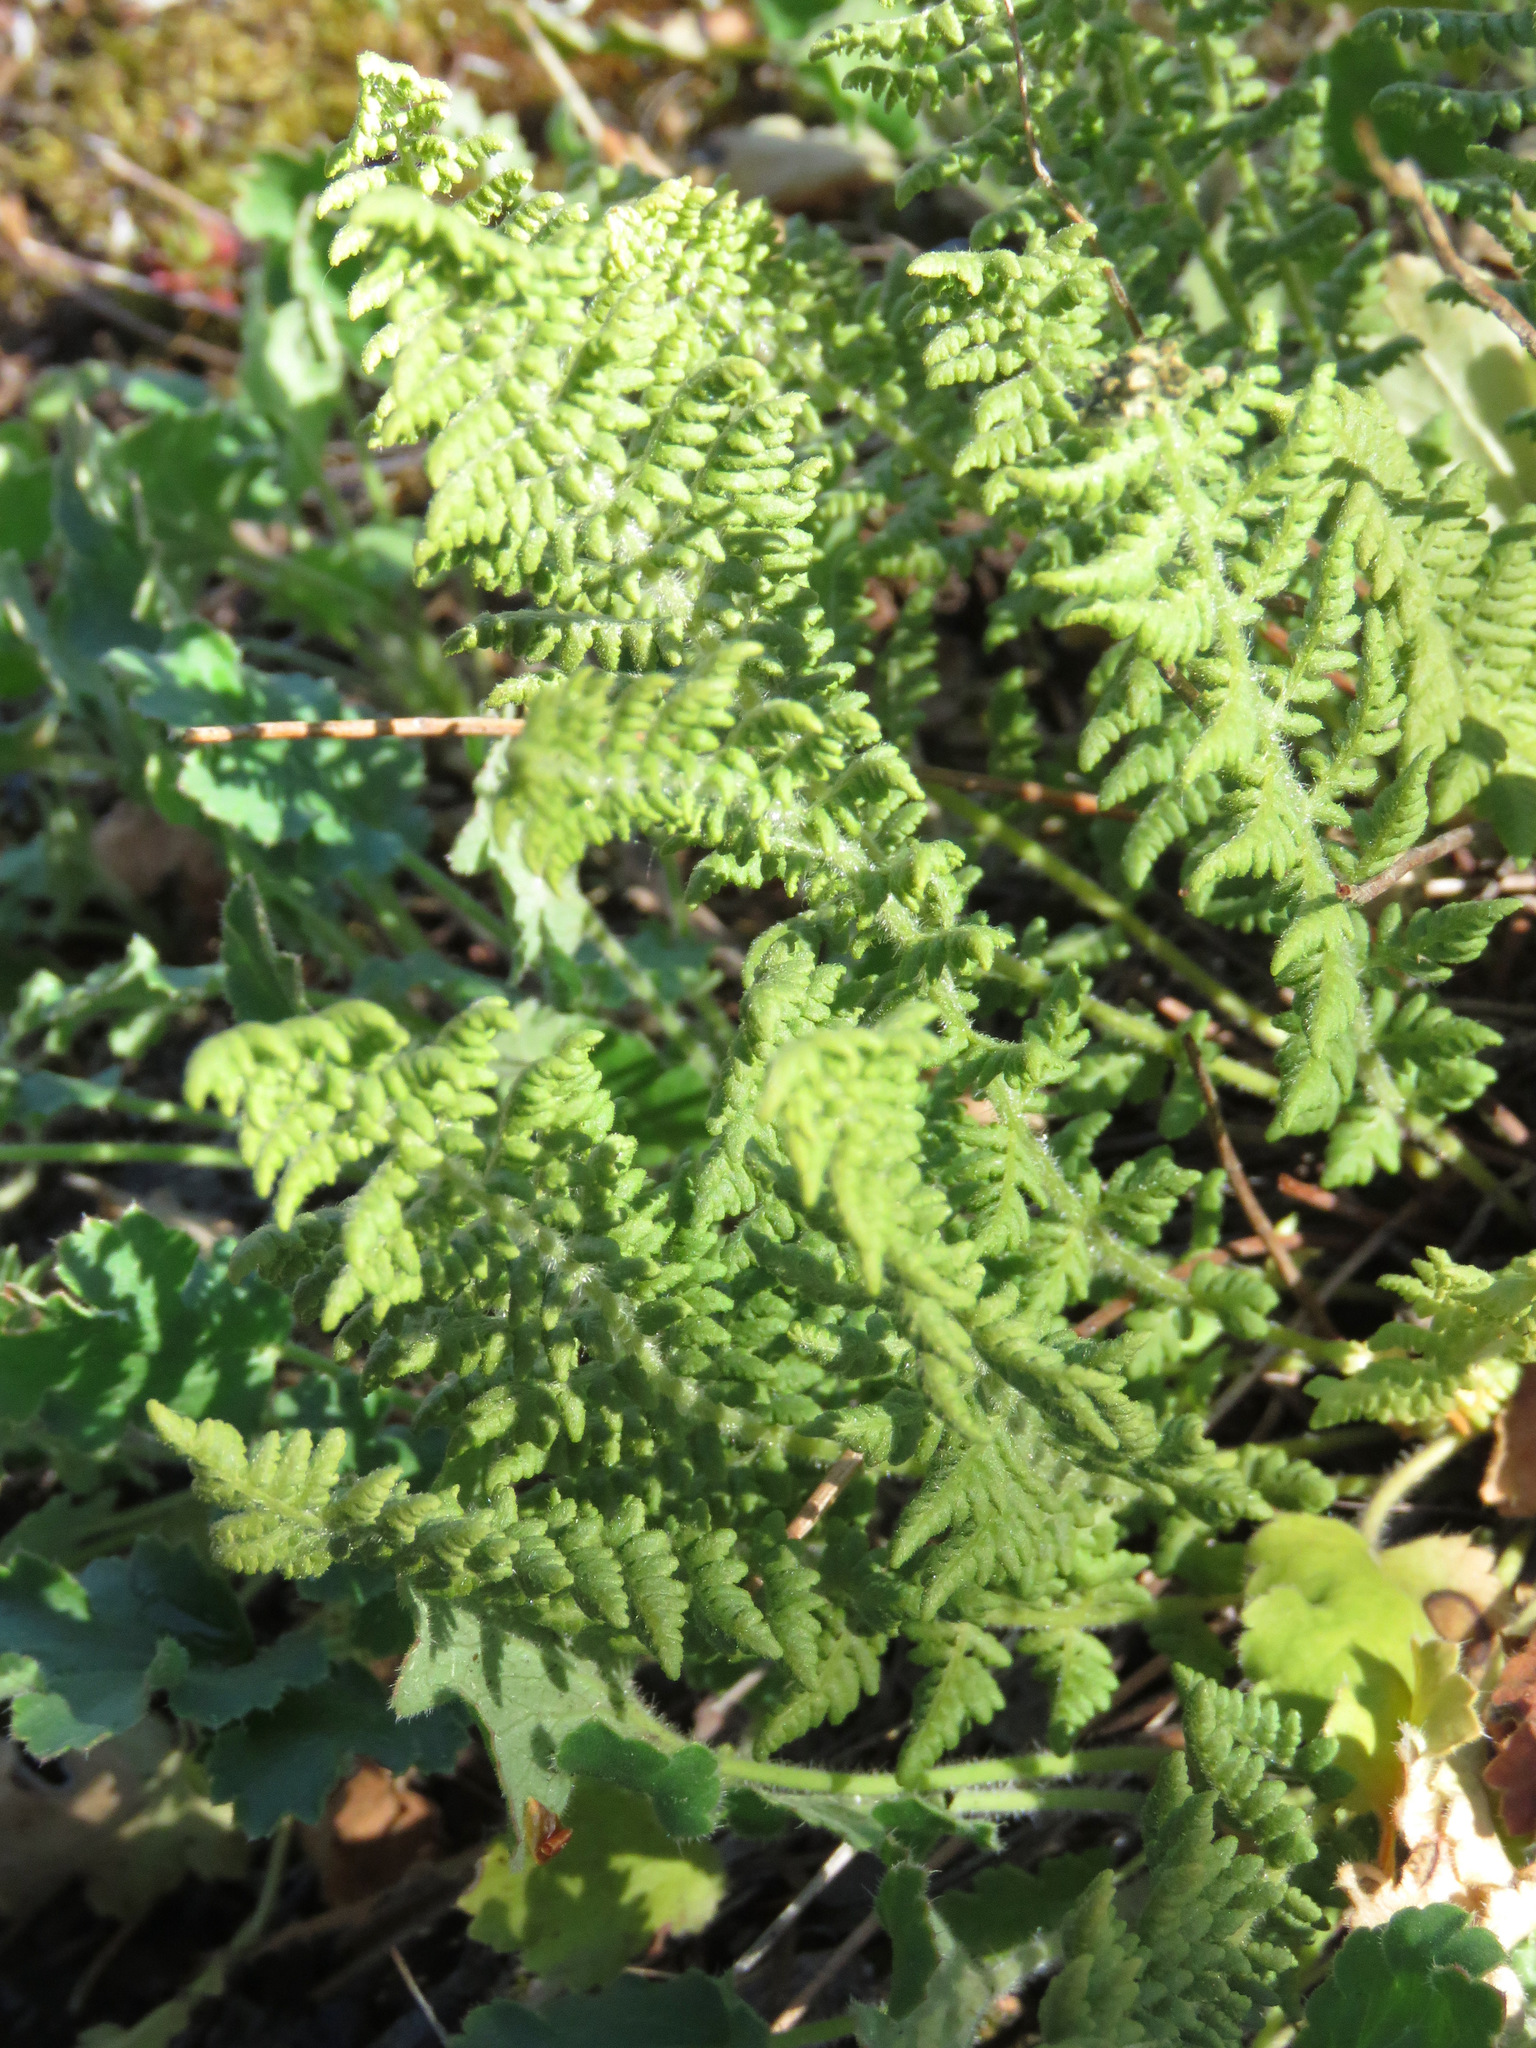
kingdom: Plantae
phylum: Tracheophyta
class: Polypodiopsida
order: Polypodiales
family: Woodsiaceae
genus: Physematium
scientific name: Physematium scopulinum
